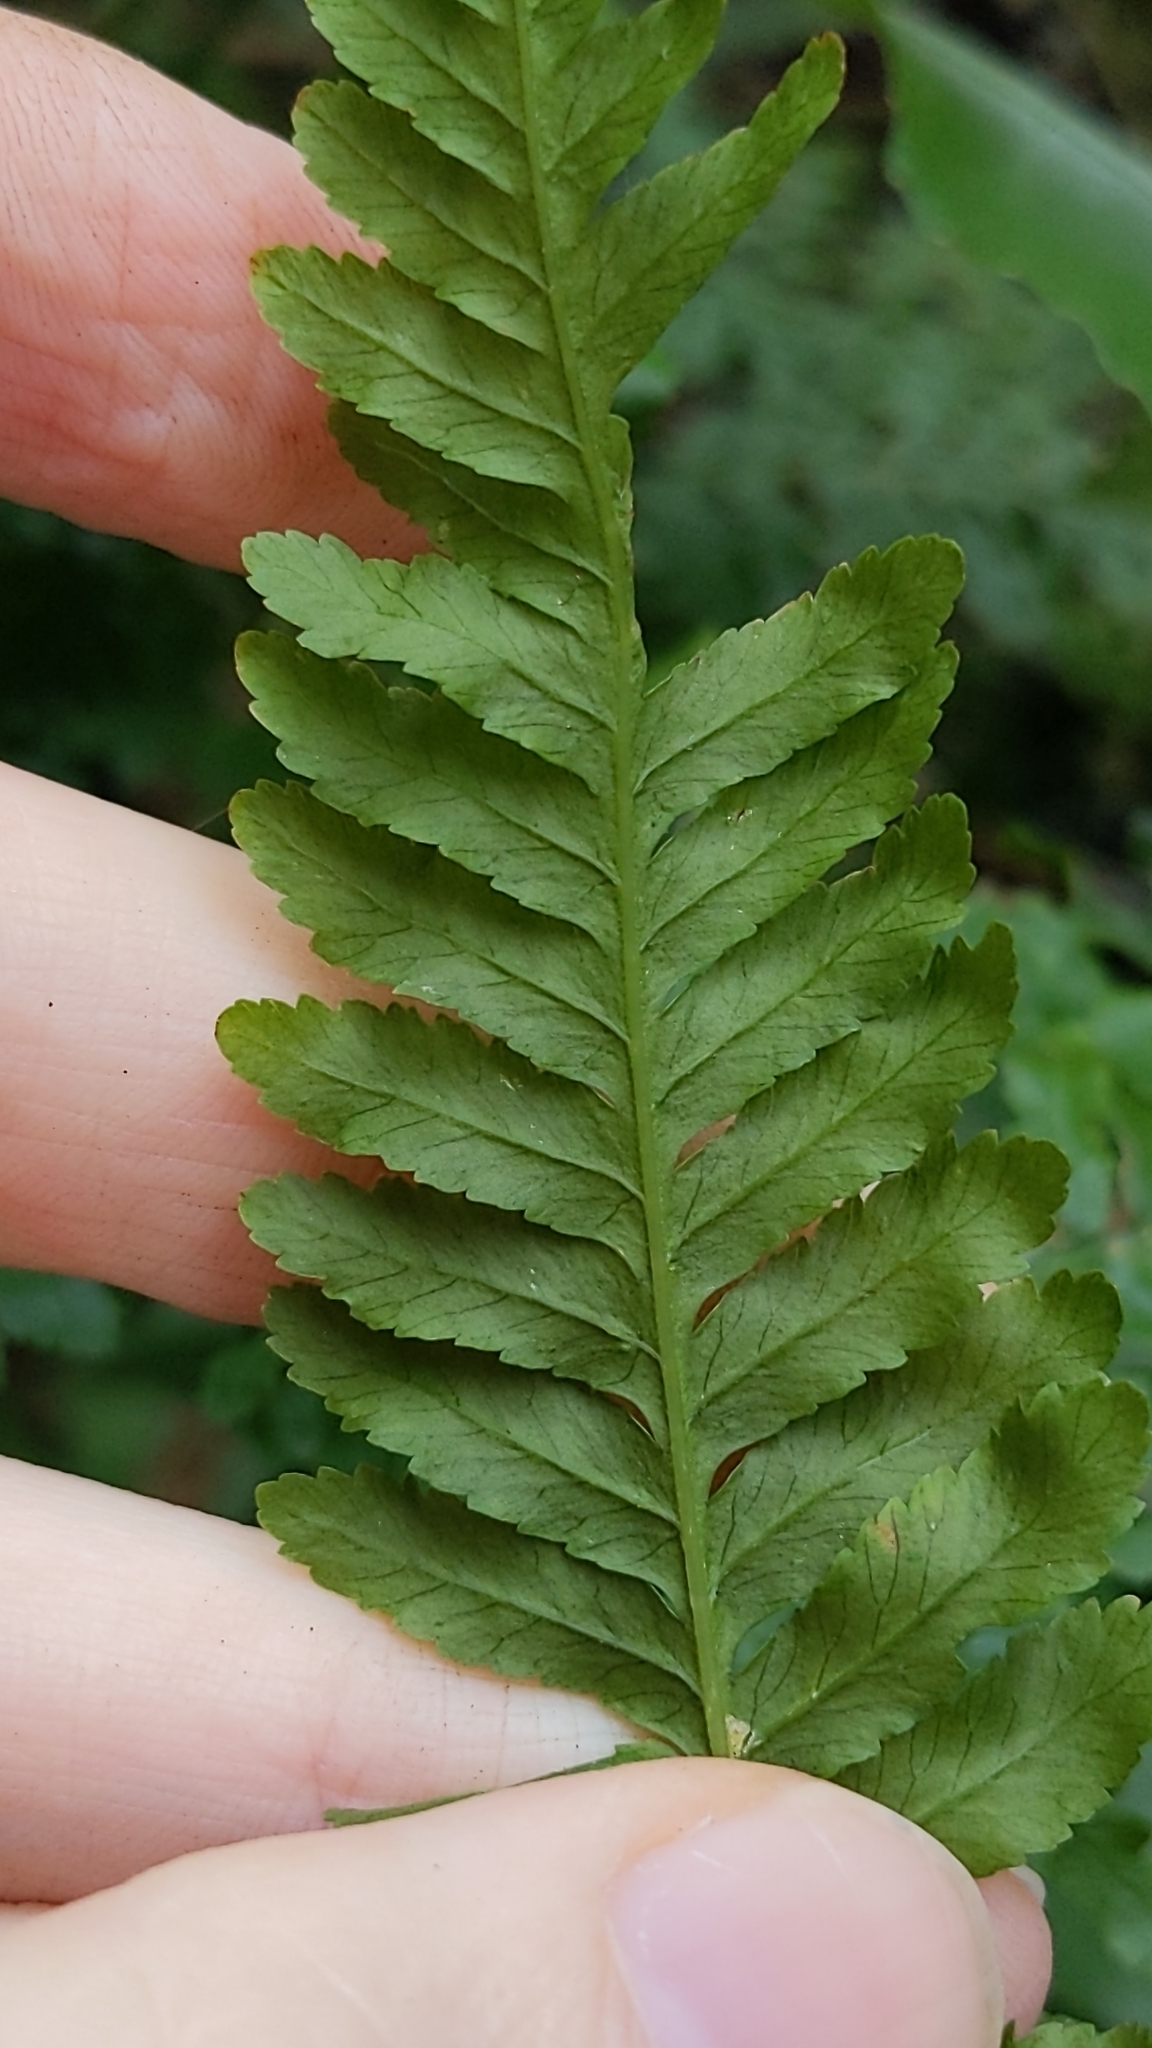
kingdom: Plantae
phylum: Tracheophyta
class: Polypodiopsida
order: Polypodiales
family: Pteridaceae
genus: Pteris
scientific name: Pteris tremula
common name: Australian brake
